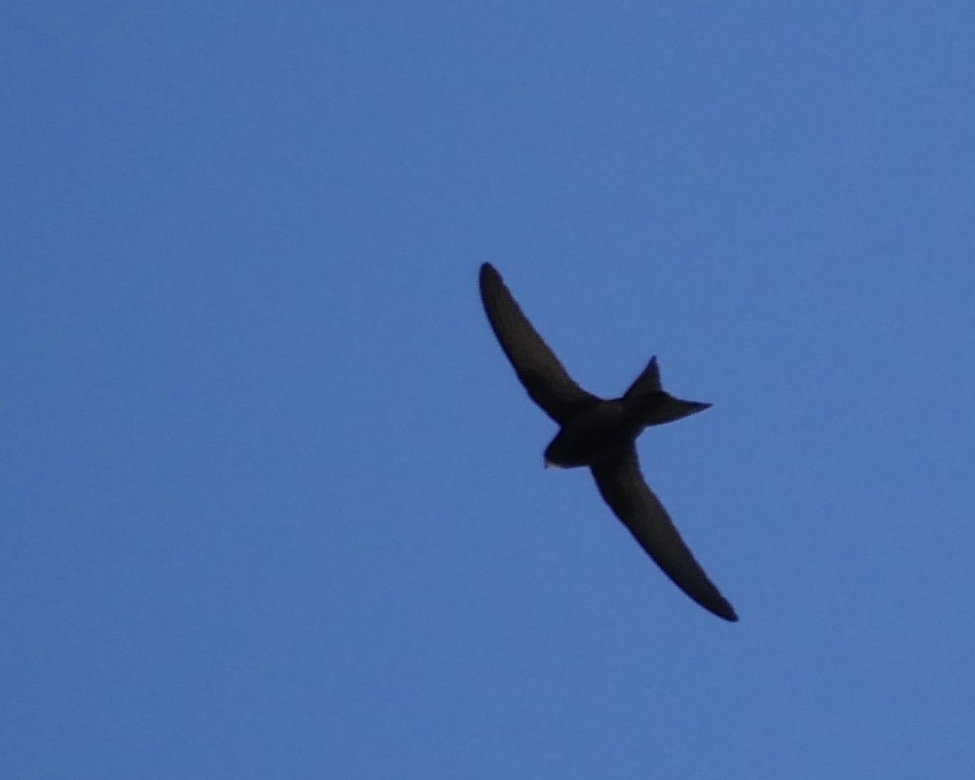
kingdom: Animalia
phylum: Chordata
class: Aves
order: Apodiformes
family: Apodidae
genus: Apus
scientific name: Apus apus
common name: Common swift
